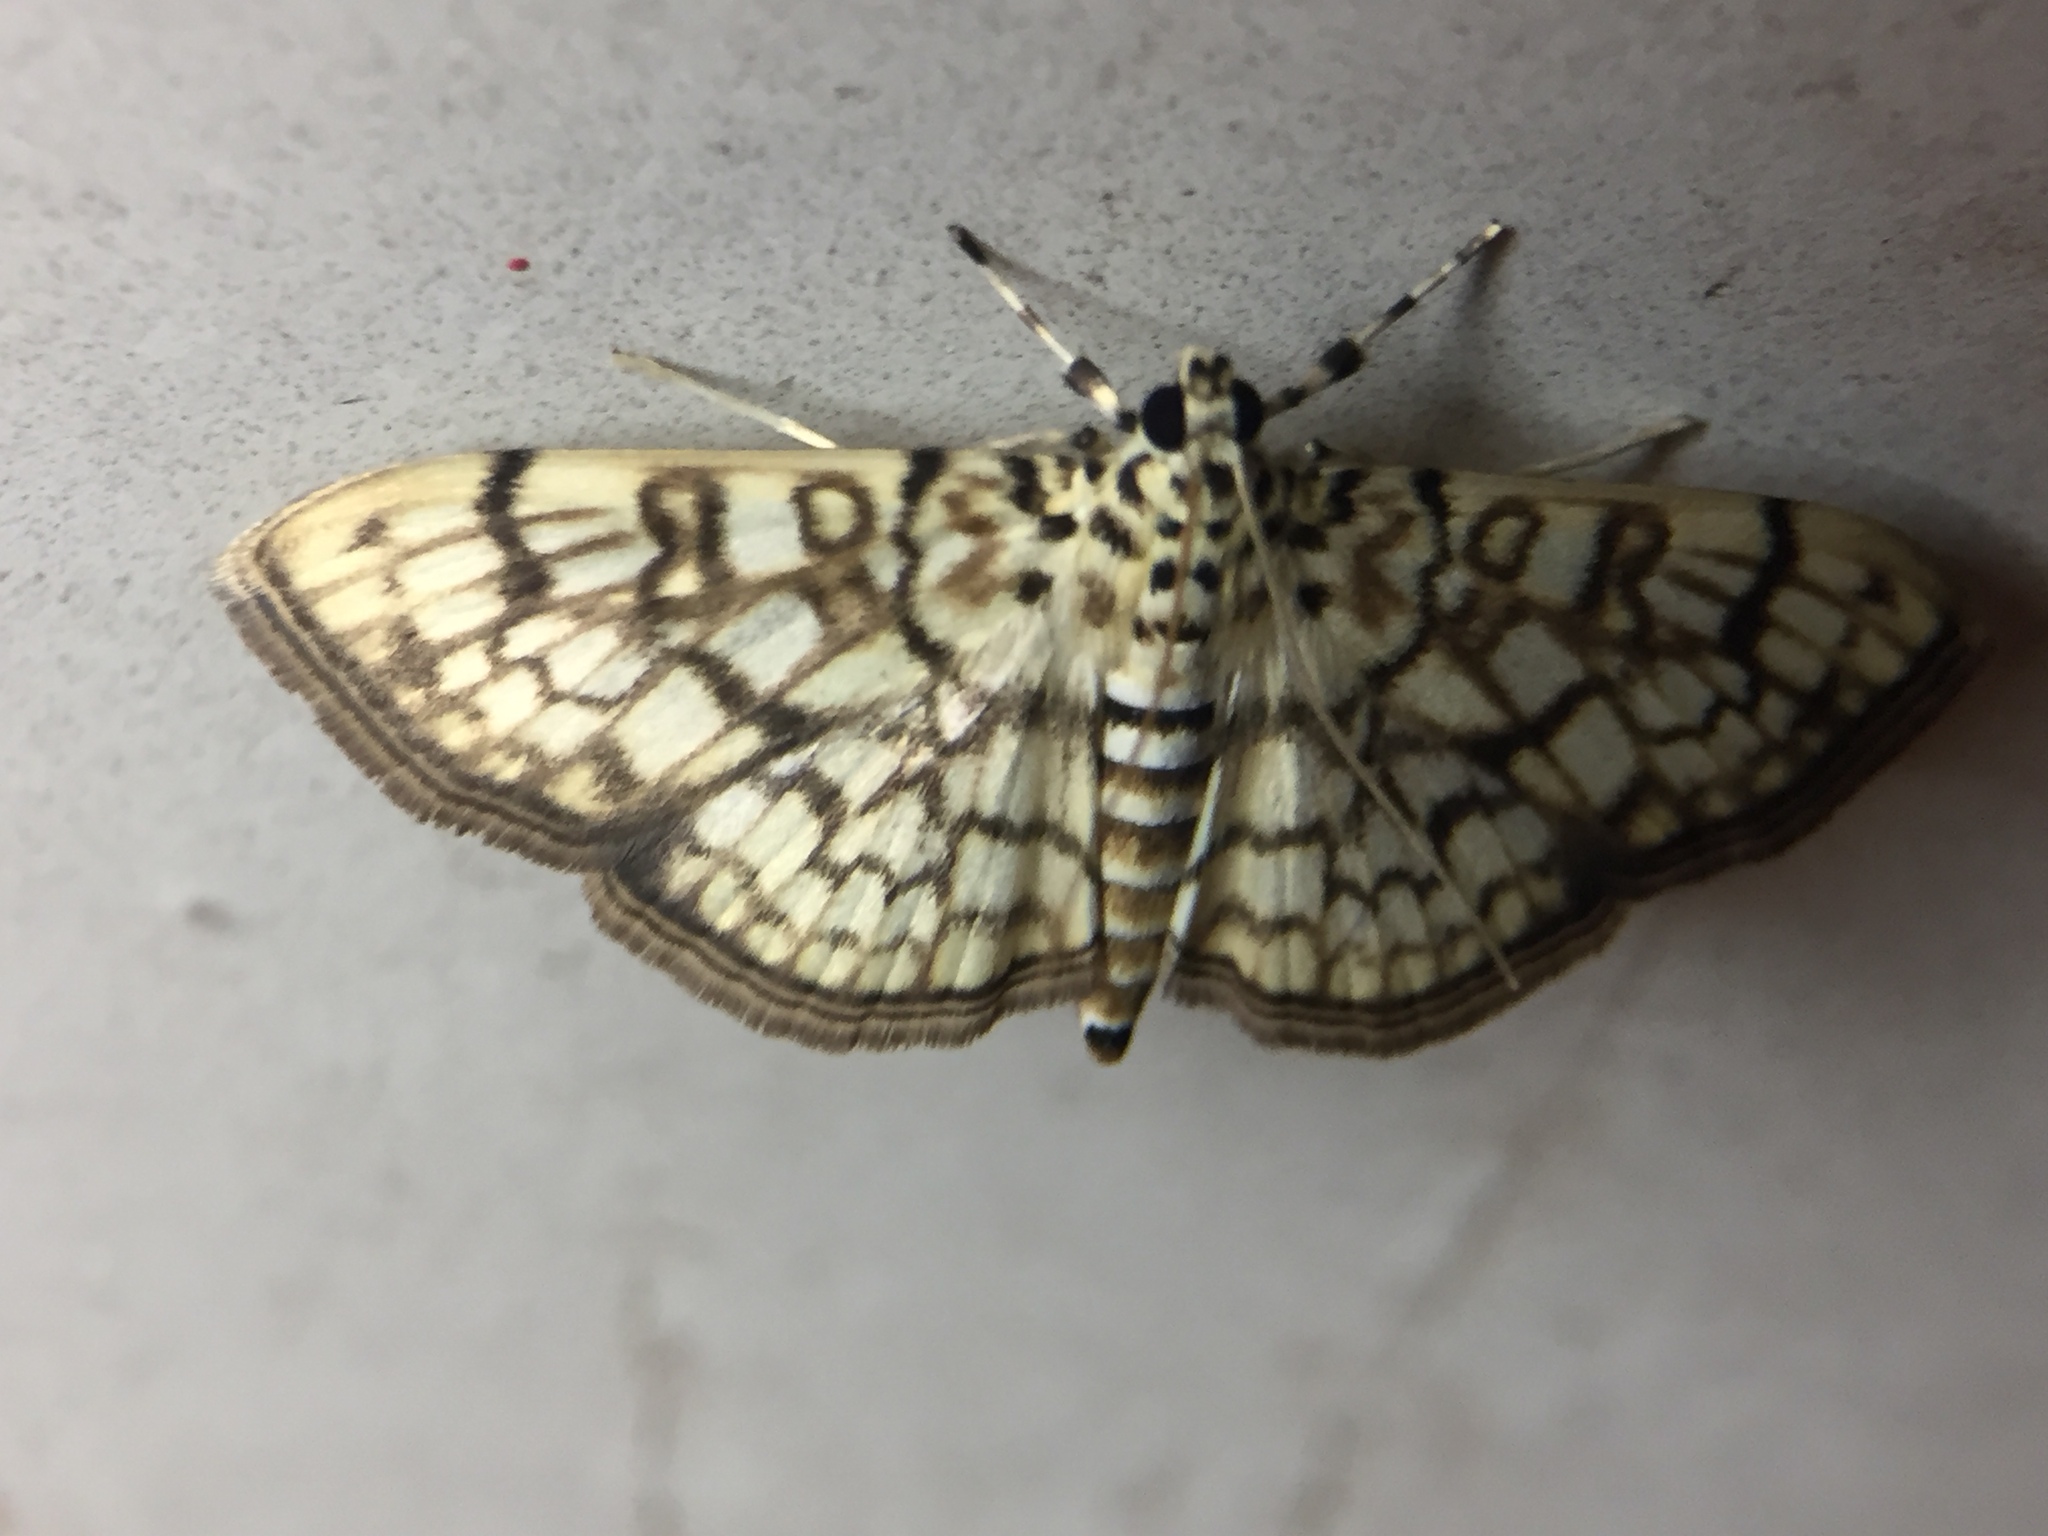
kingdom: Animalia
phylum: Arthropoda
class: Insecta
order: Lepidoptera
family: Crambidae
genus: Haritalodes
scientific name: Haritalodes derogata
